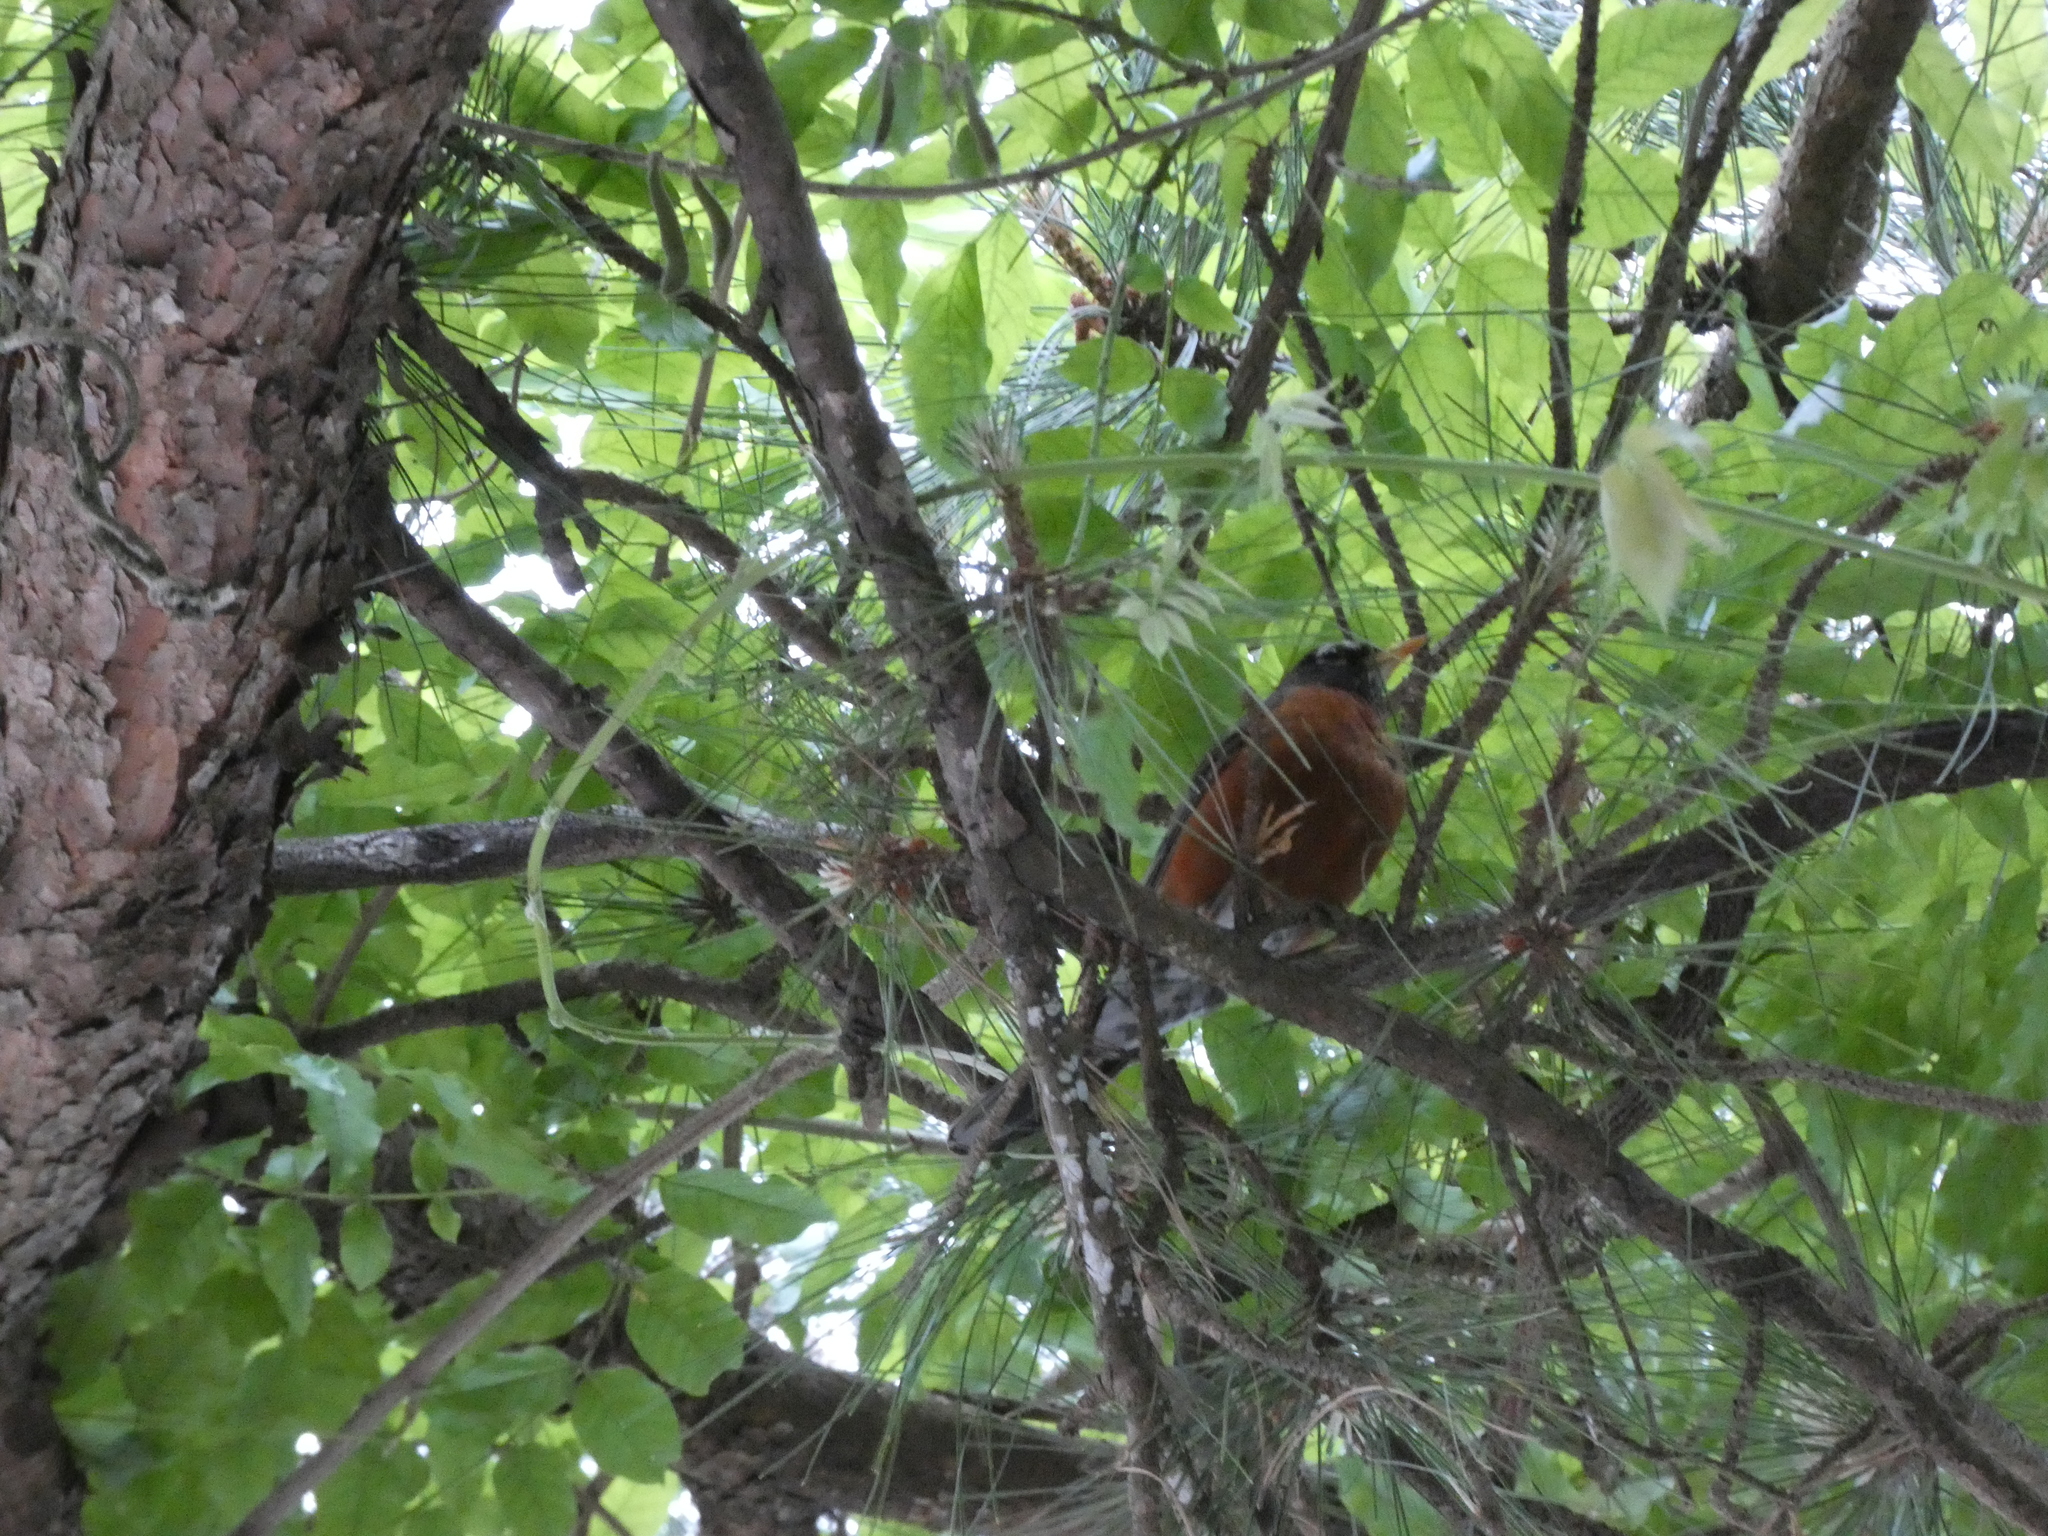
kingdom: Animalia
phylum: Chordata
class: Aves
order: Passeriformes
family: Turdidae
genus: Turdus
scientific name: Turdus migratorius
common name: American robin
